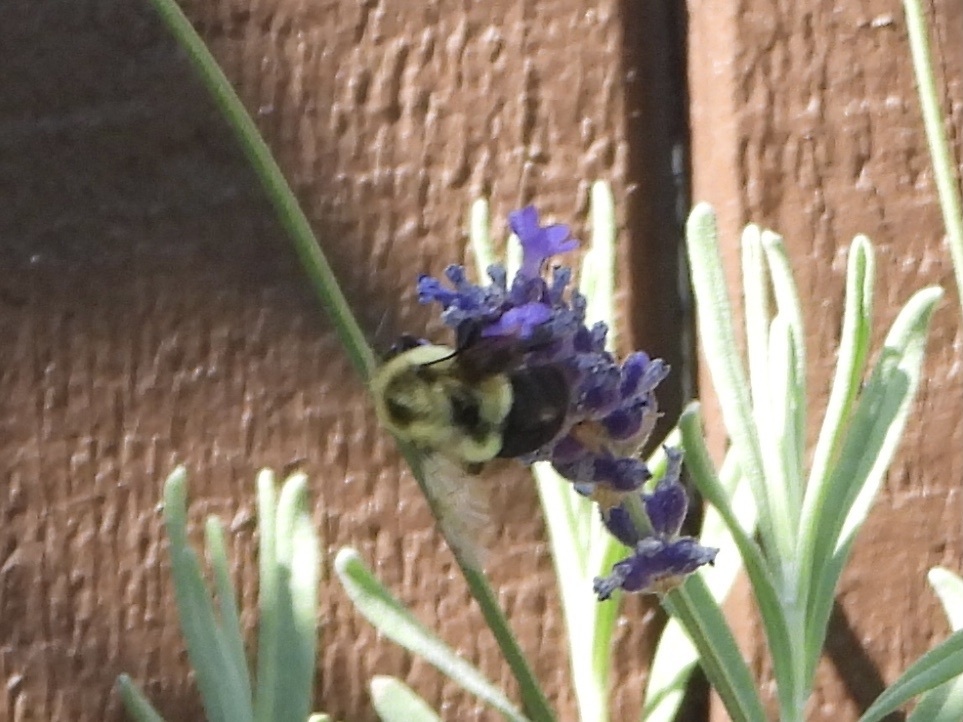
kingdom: Animalia
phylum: Arthropoda
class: Insecta
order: Hymenoptera
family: Apidae
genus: Bombus
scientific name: Bombus impatiens
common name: Common eastern bumble bee
